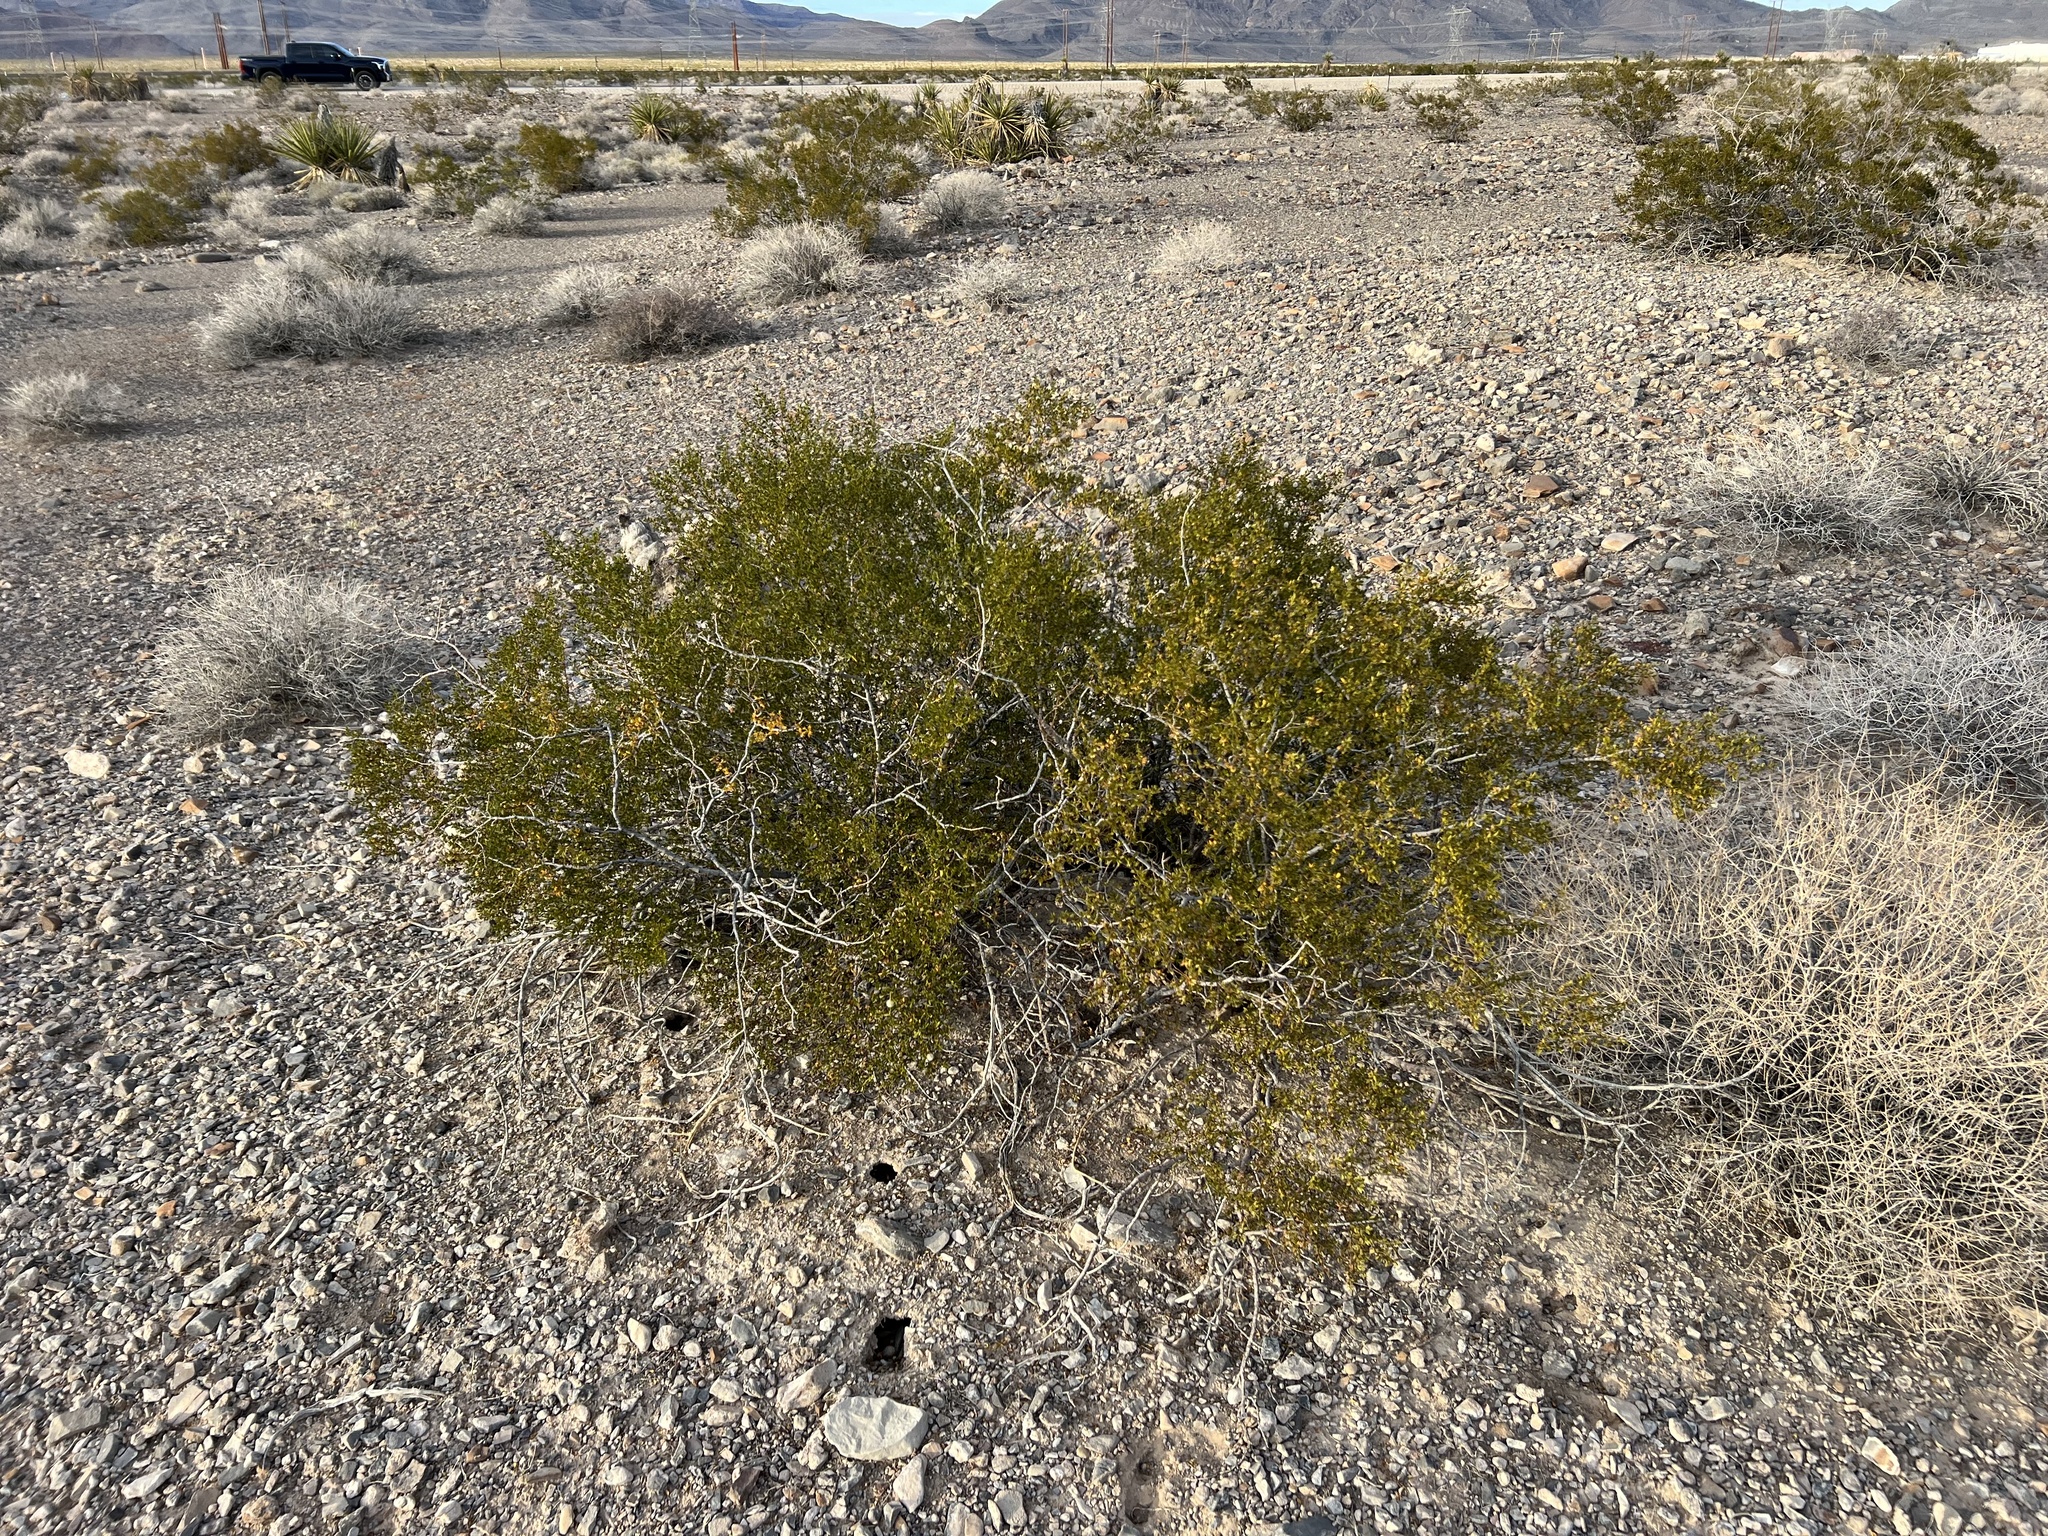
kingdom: Plantae
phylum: Tracheophyta
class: Magnoliopsida
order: Zygophyllales
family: Zygophyllaceae
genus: Larrea
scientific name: Larrea tridentata
